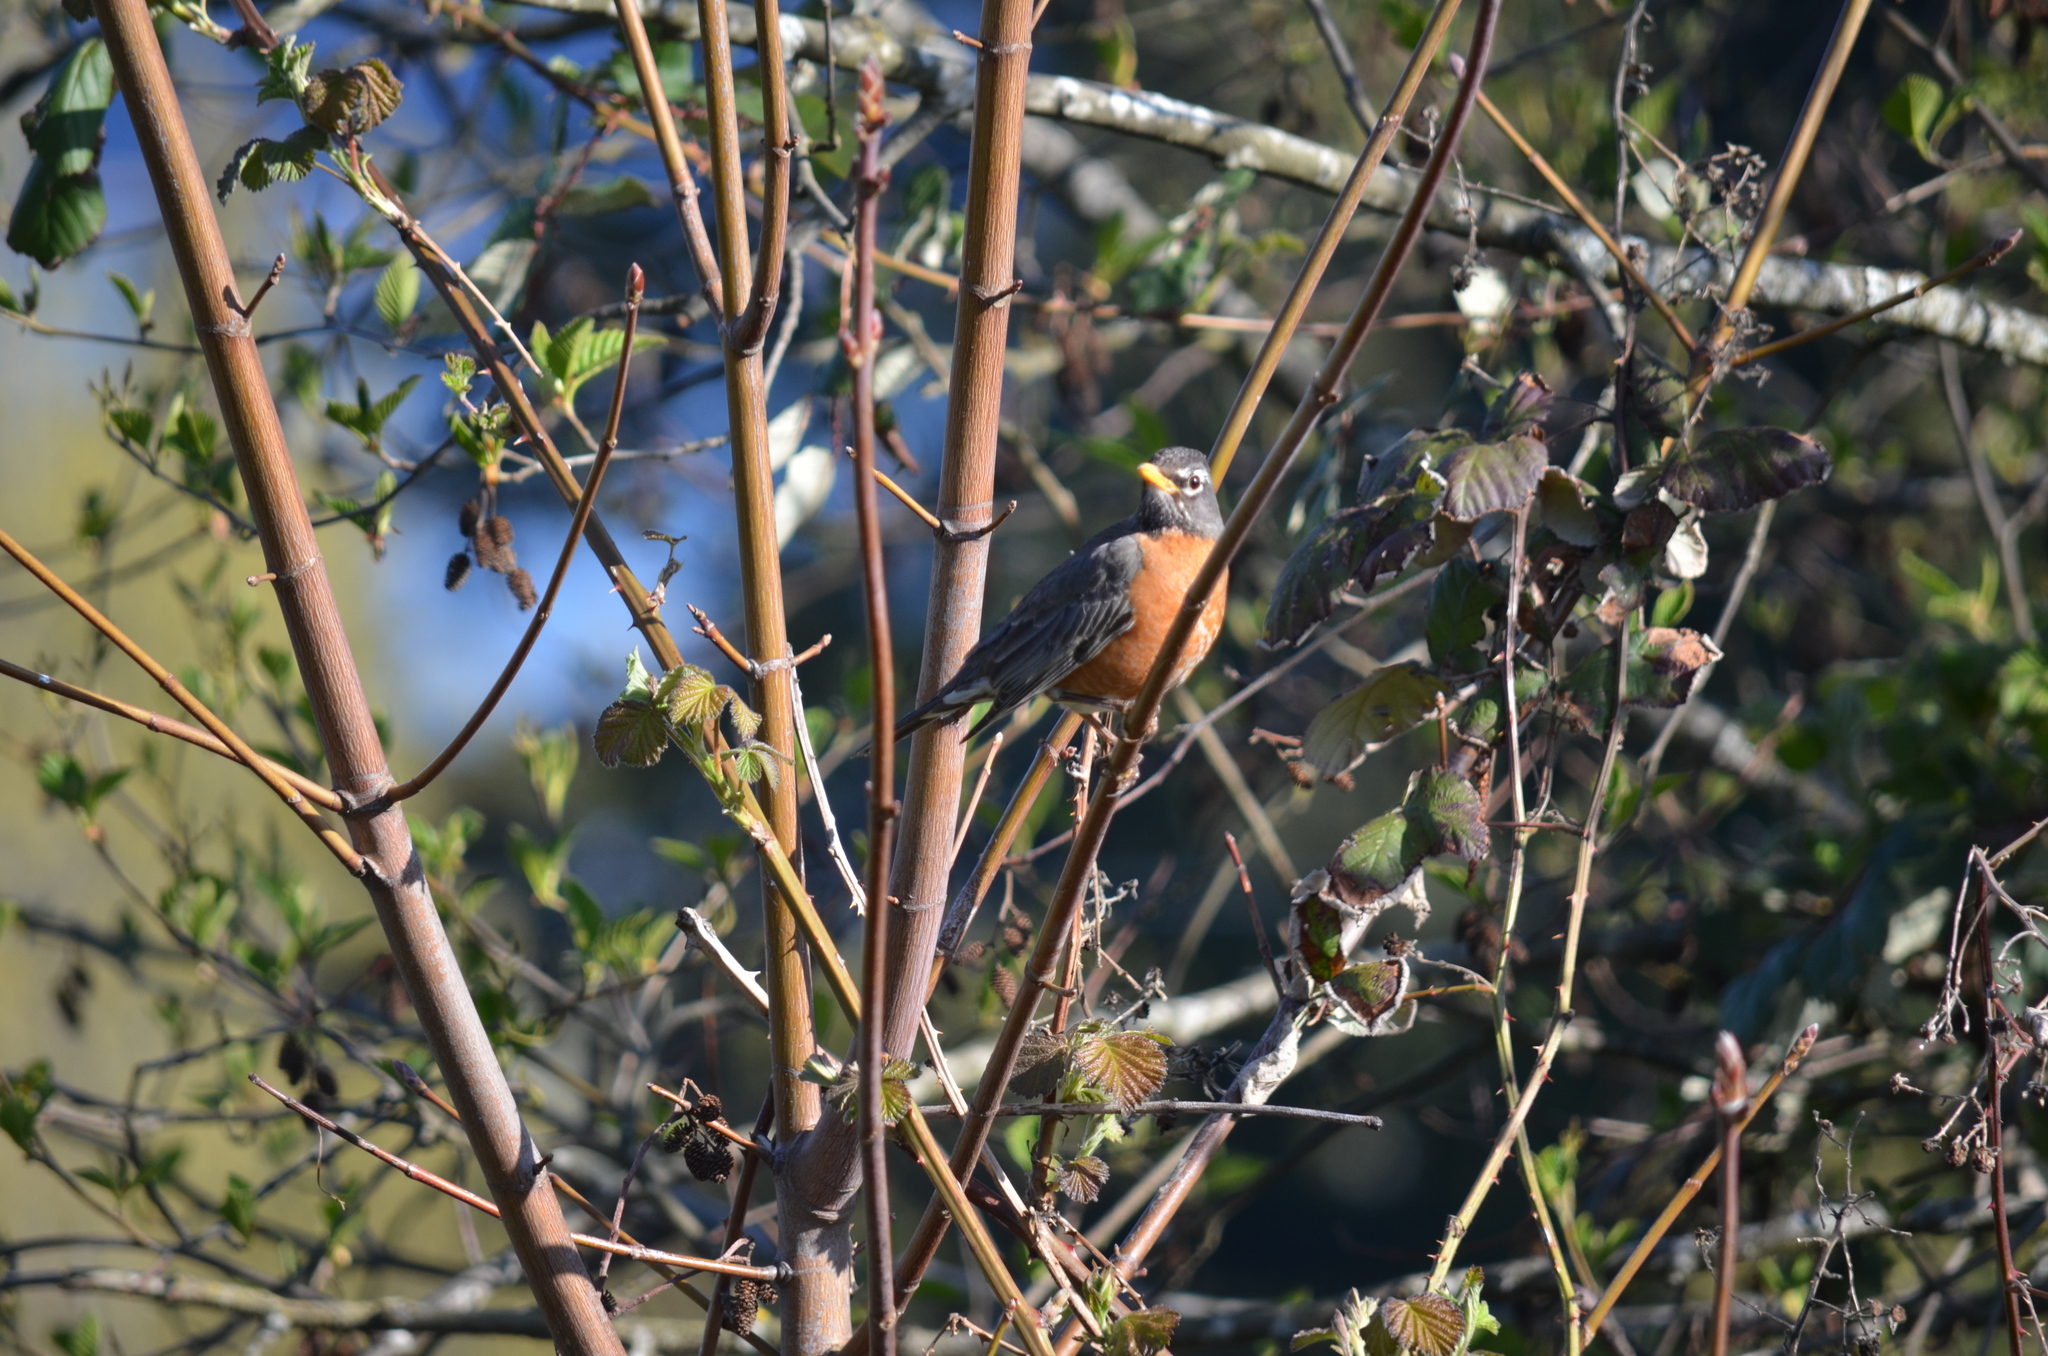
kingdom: Animalia
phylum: Chordata
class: Aves
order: Passeriformes
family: Turdidae
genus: Turdus
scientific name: Turdus migratorius
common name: American robin
